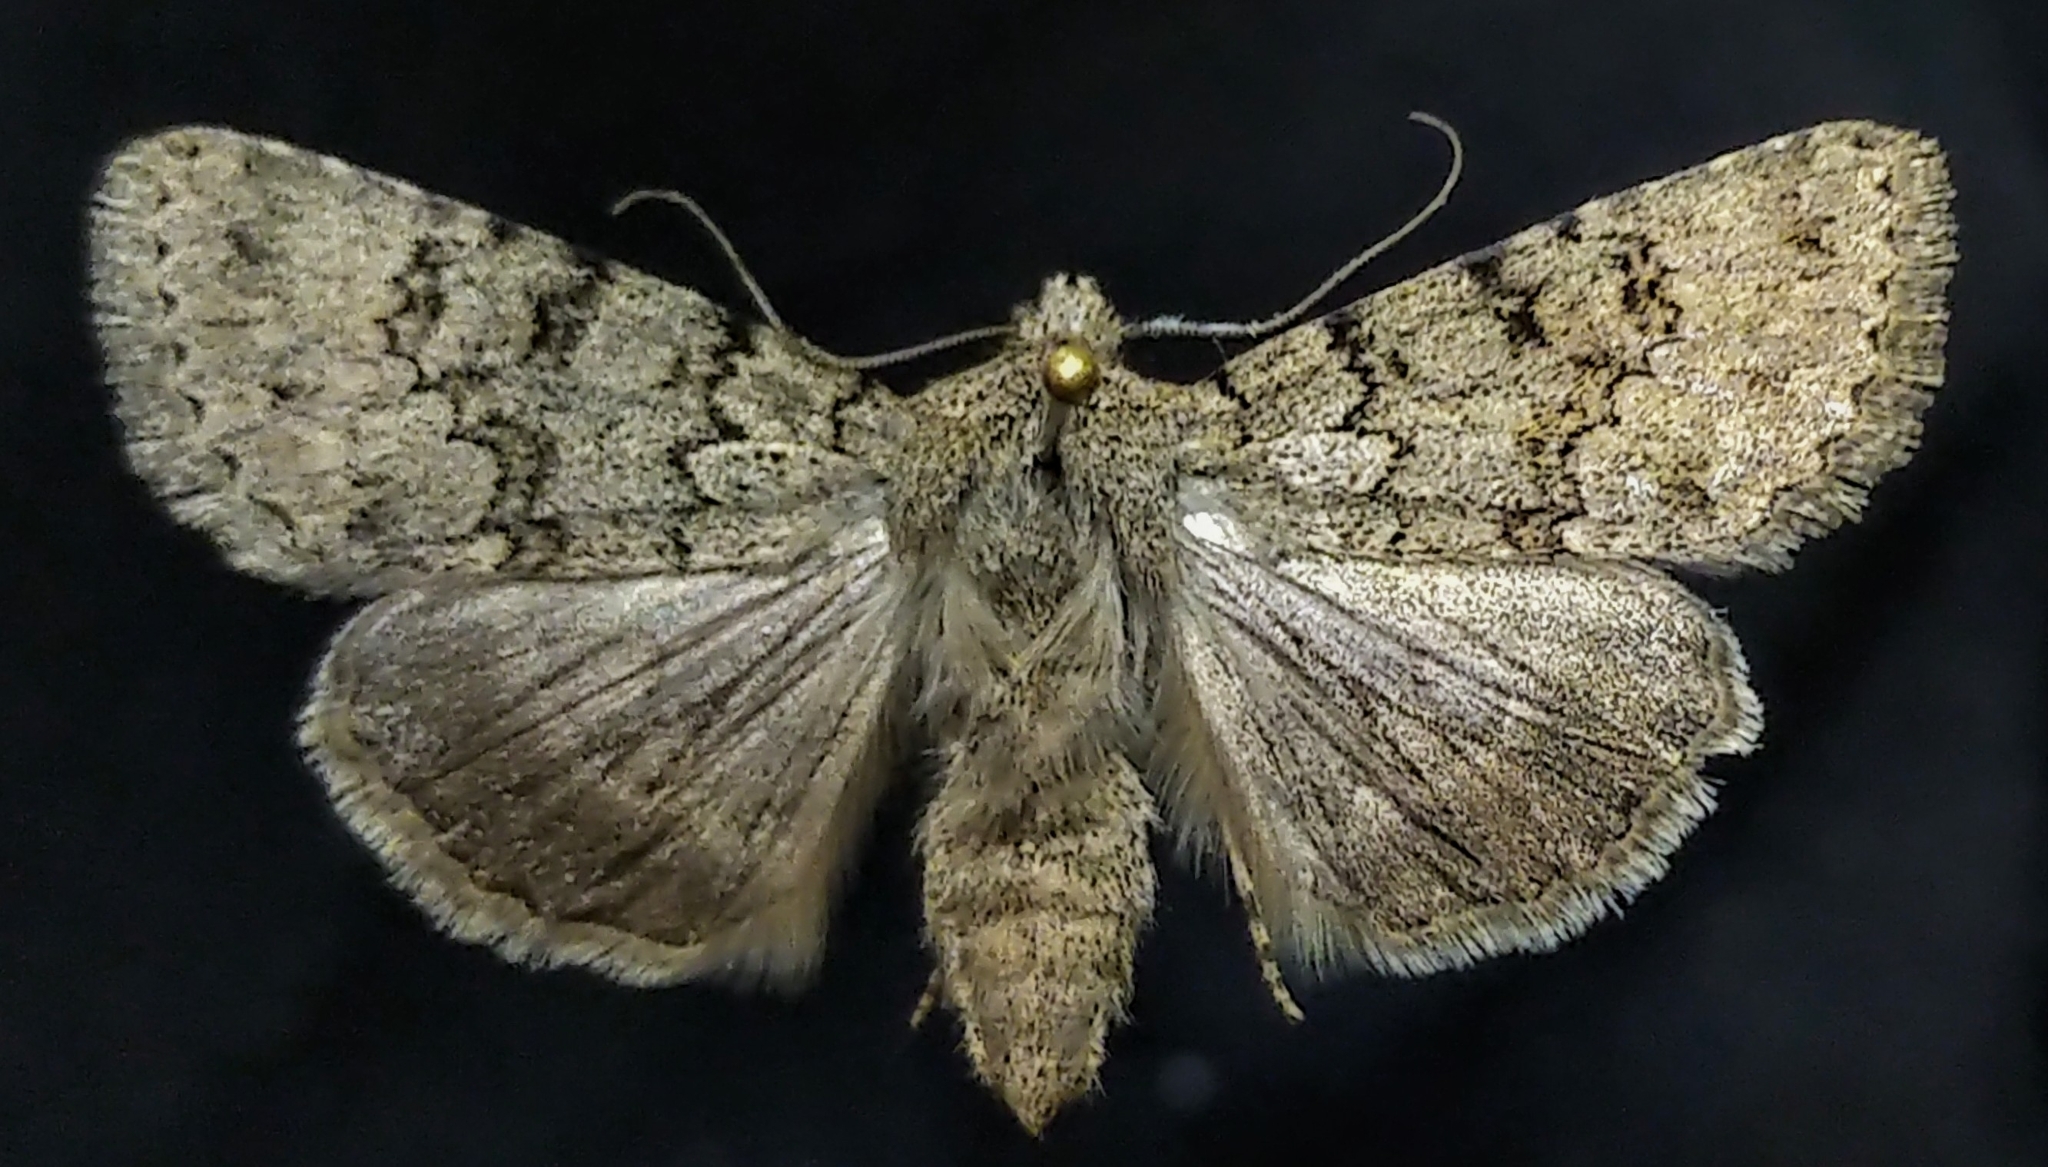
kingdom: Animalia
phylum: Arthropoda
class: Insecta
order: Lepidoptera
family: Noctuidae
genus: Sympistis
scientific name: Sympistis glennyi
